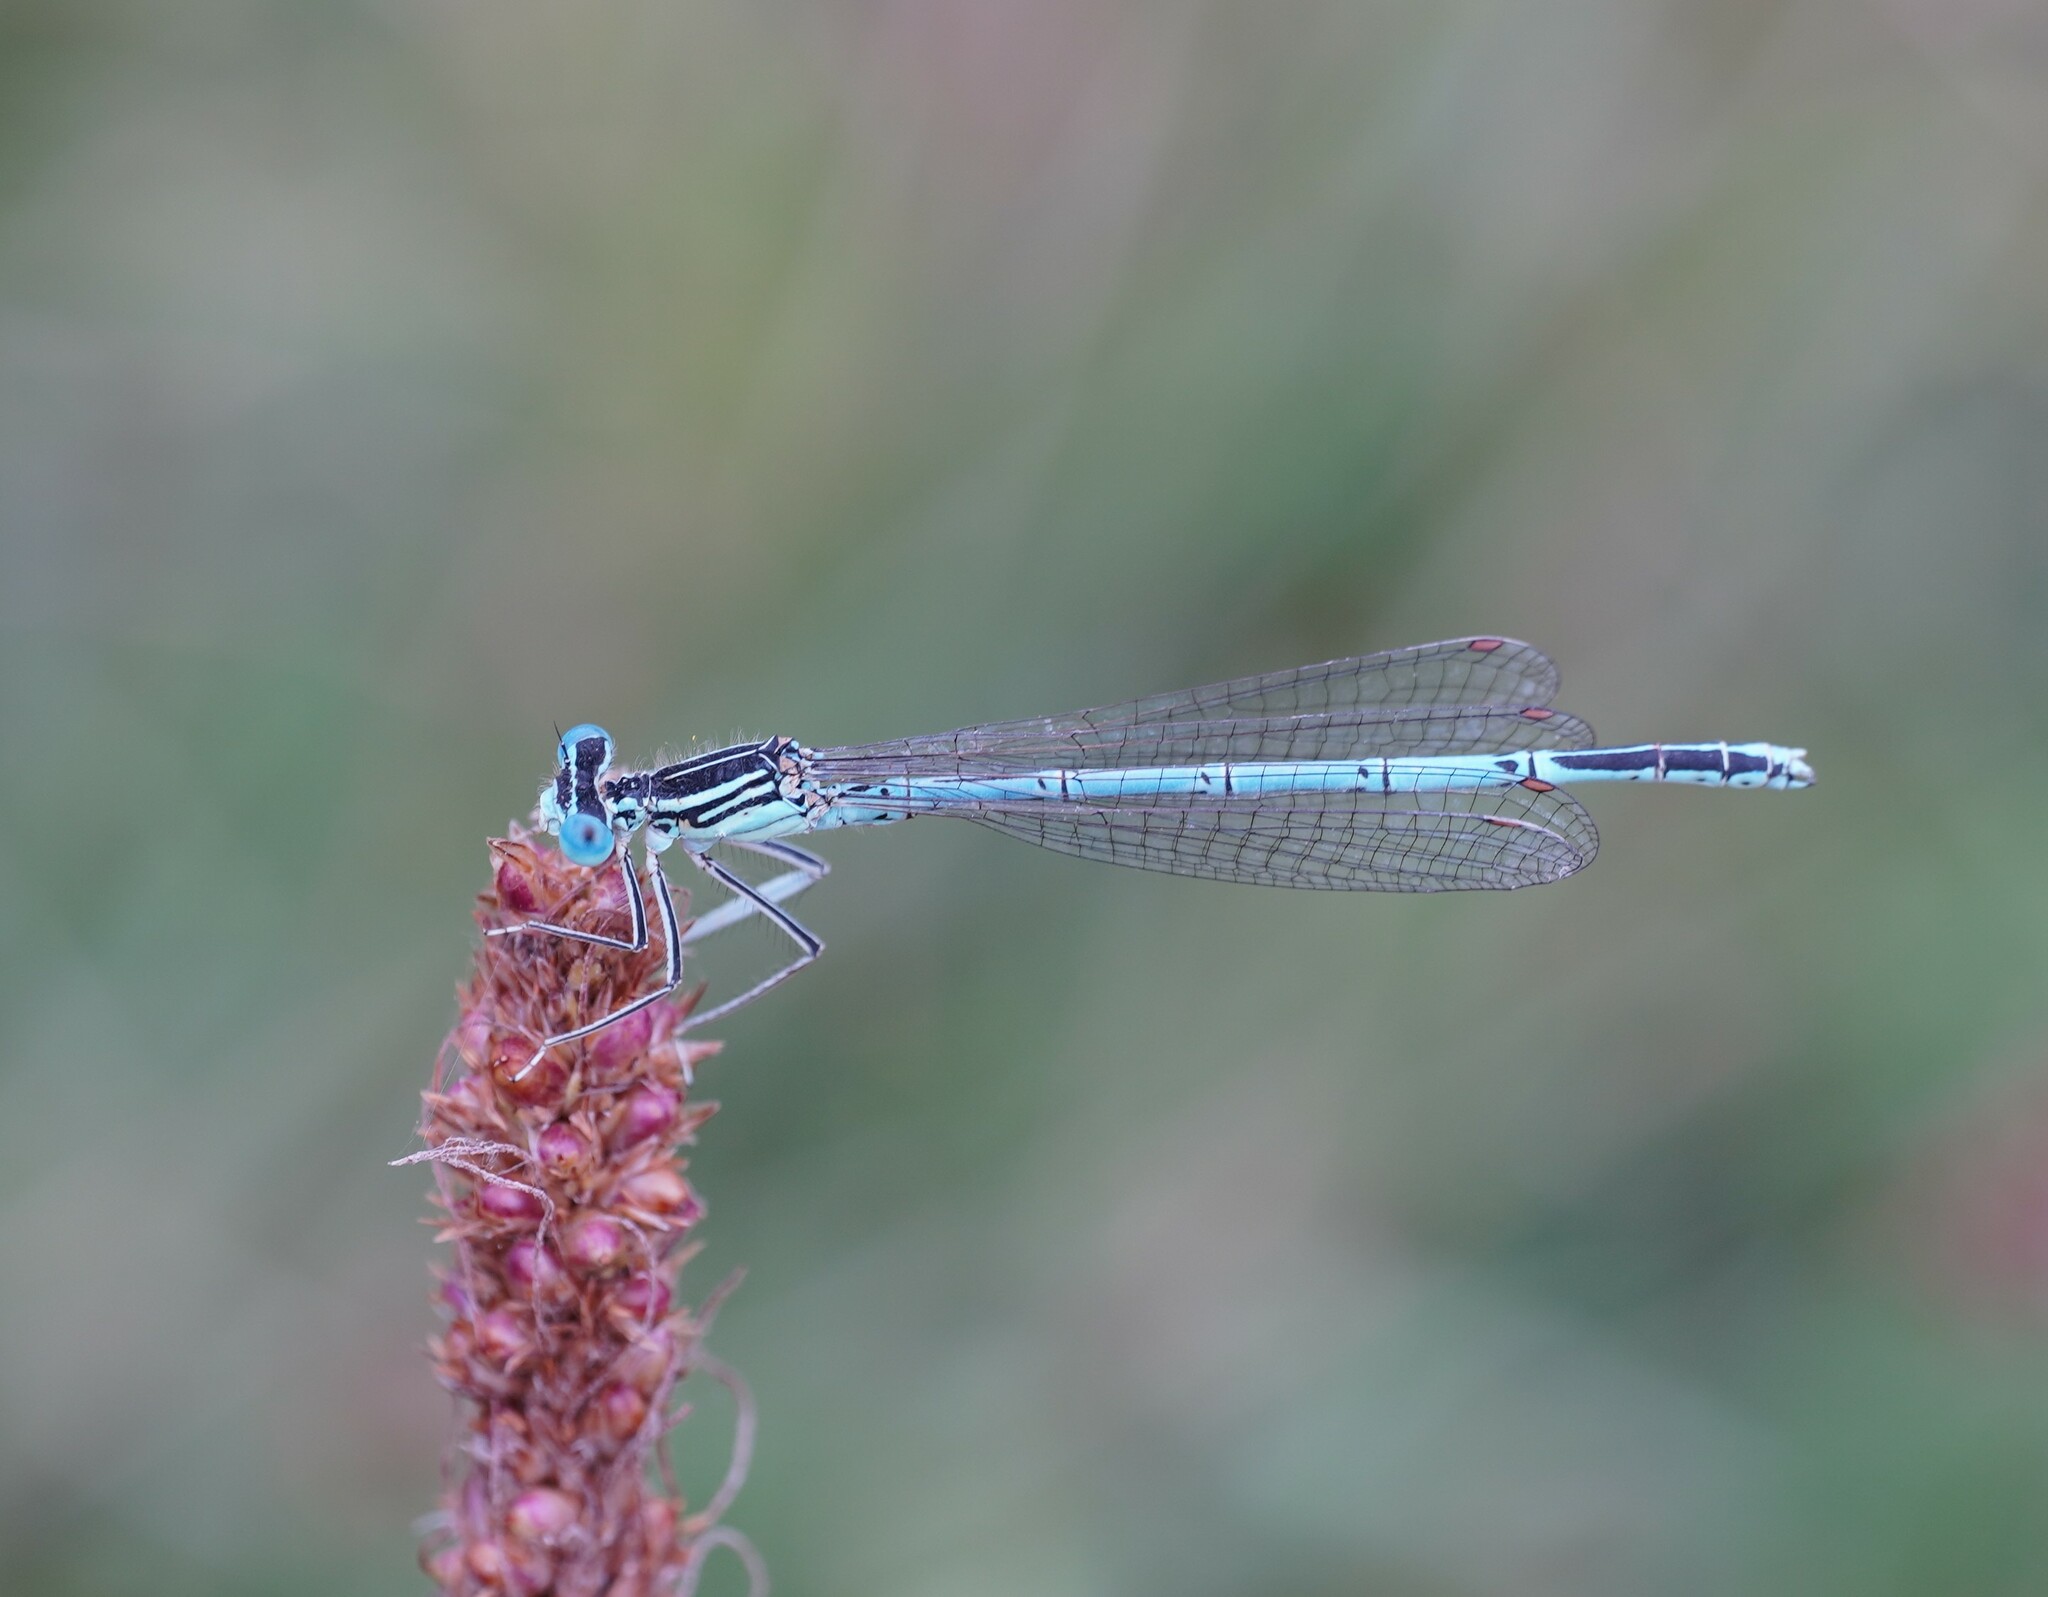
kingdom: Animalia
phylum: Arthropoda
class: Insecta
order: Odonata
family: Platycnemididae
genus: Platycnemis
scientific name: Platycnemis pennipes
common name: White-legged damselfly
